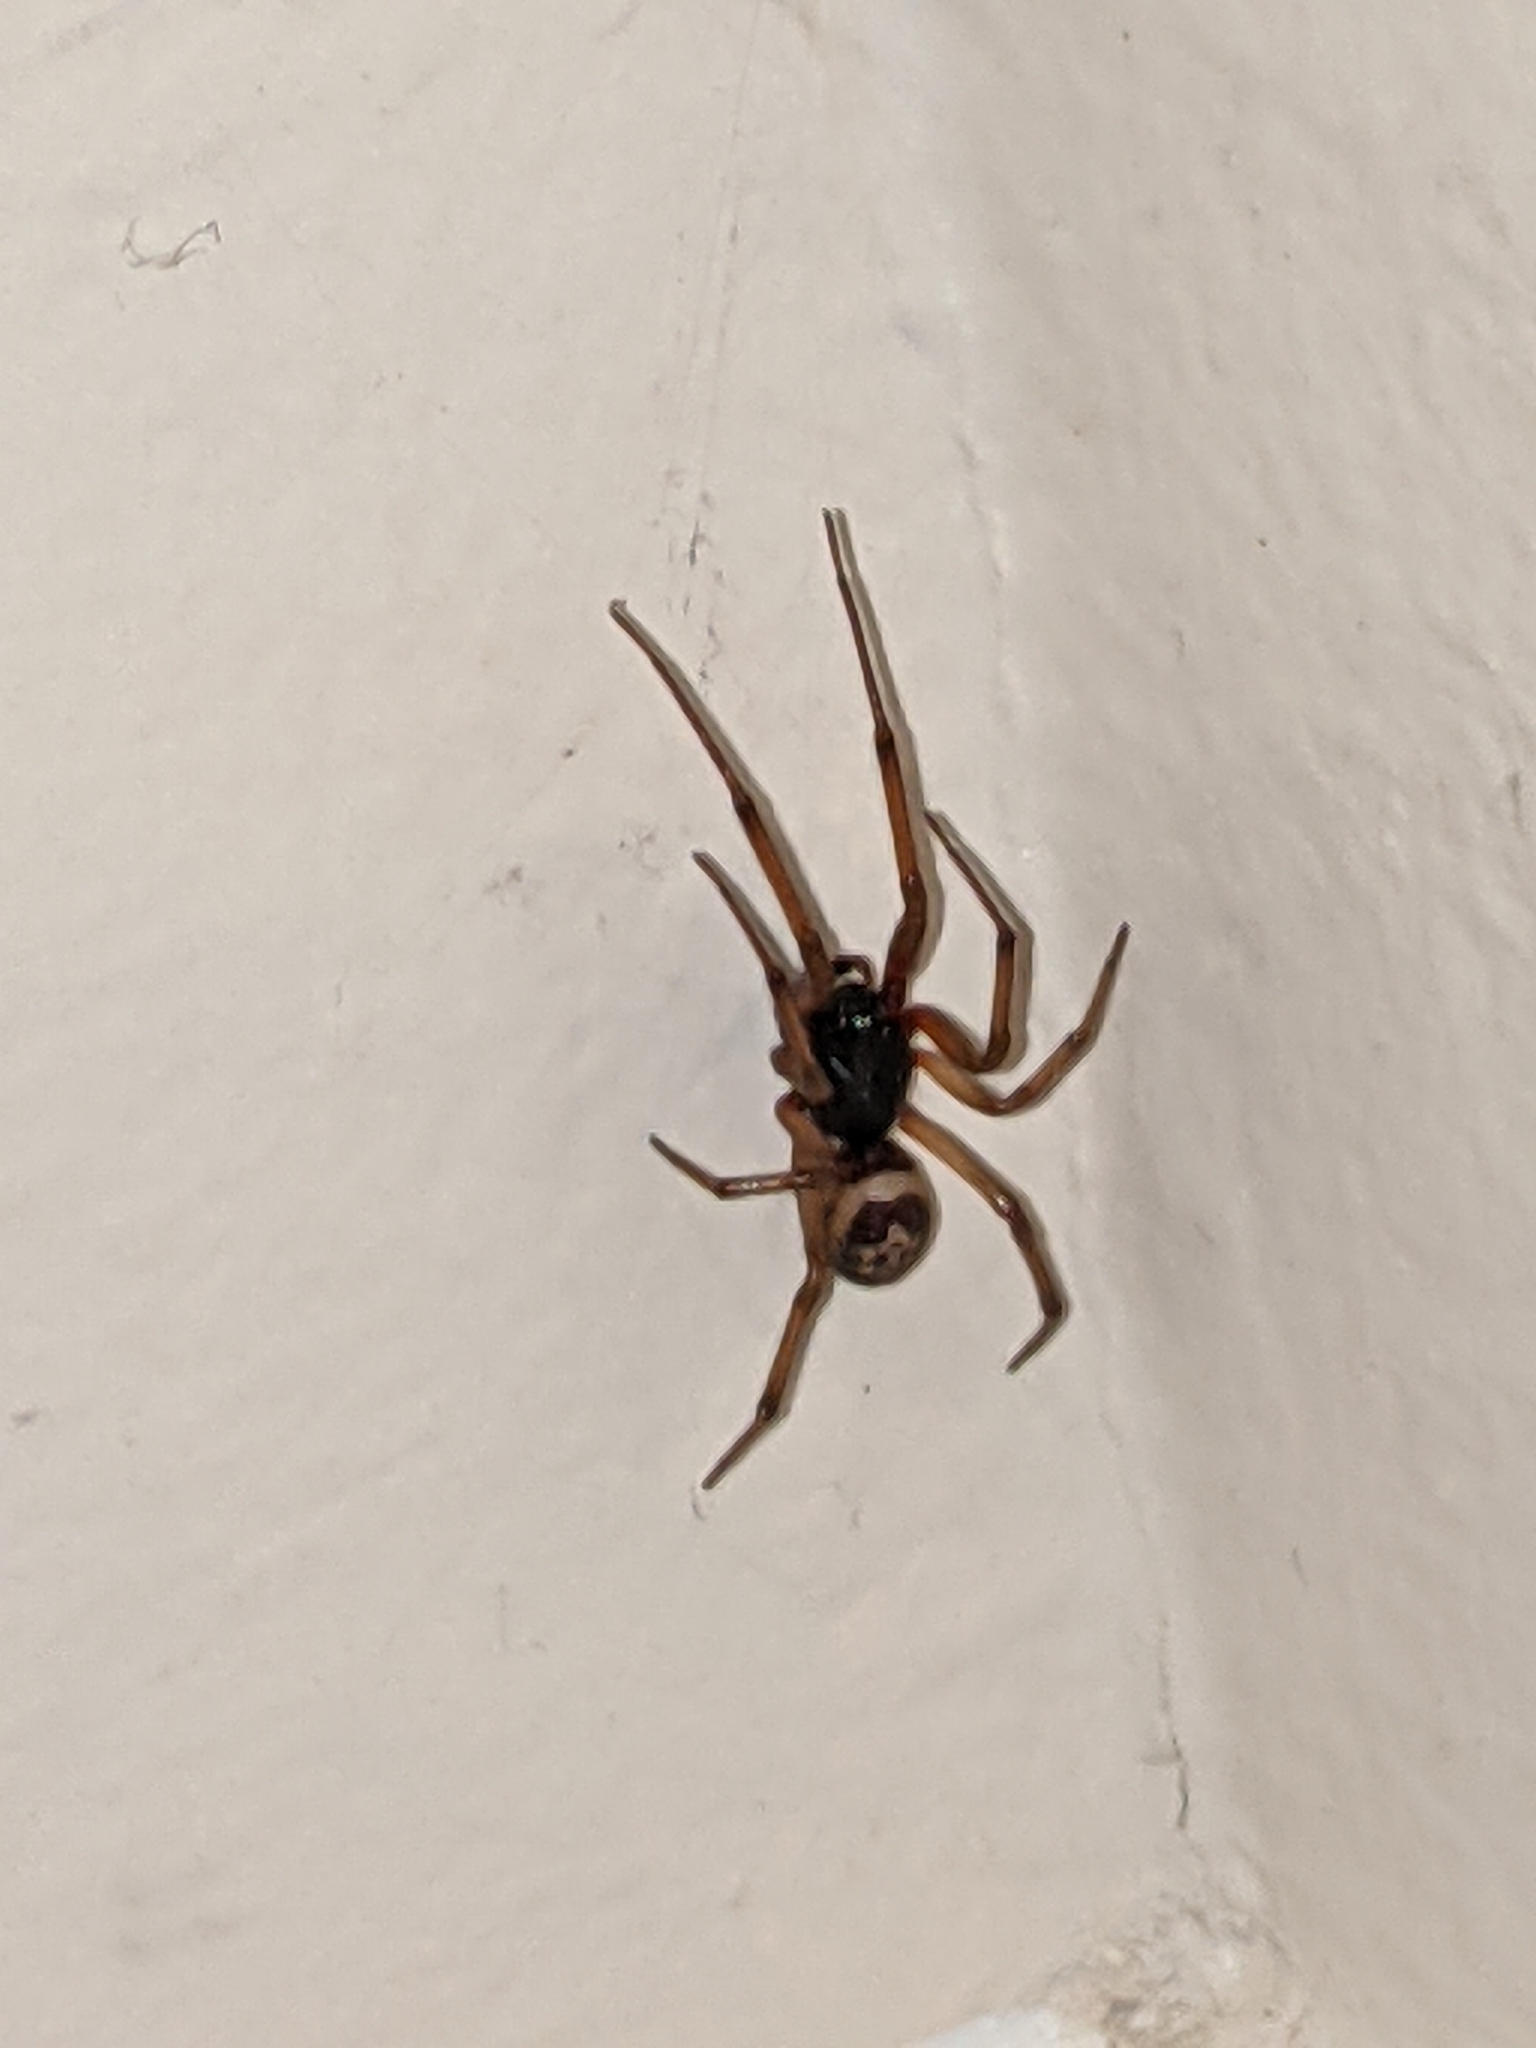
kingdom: Animalia
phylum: Arthropoda
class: Arachnida
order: Araneae
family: Theridiidae
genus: Steatoda
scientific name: Steatoda nobilis
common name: Cobweb weaver
